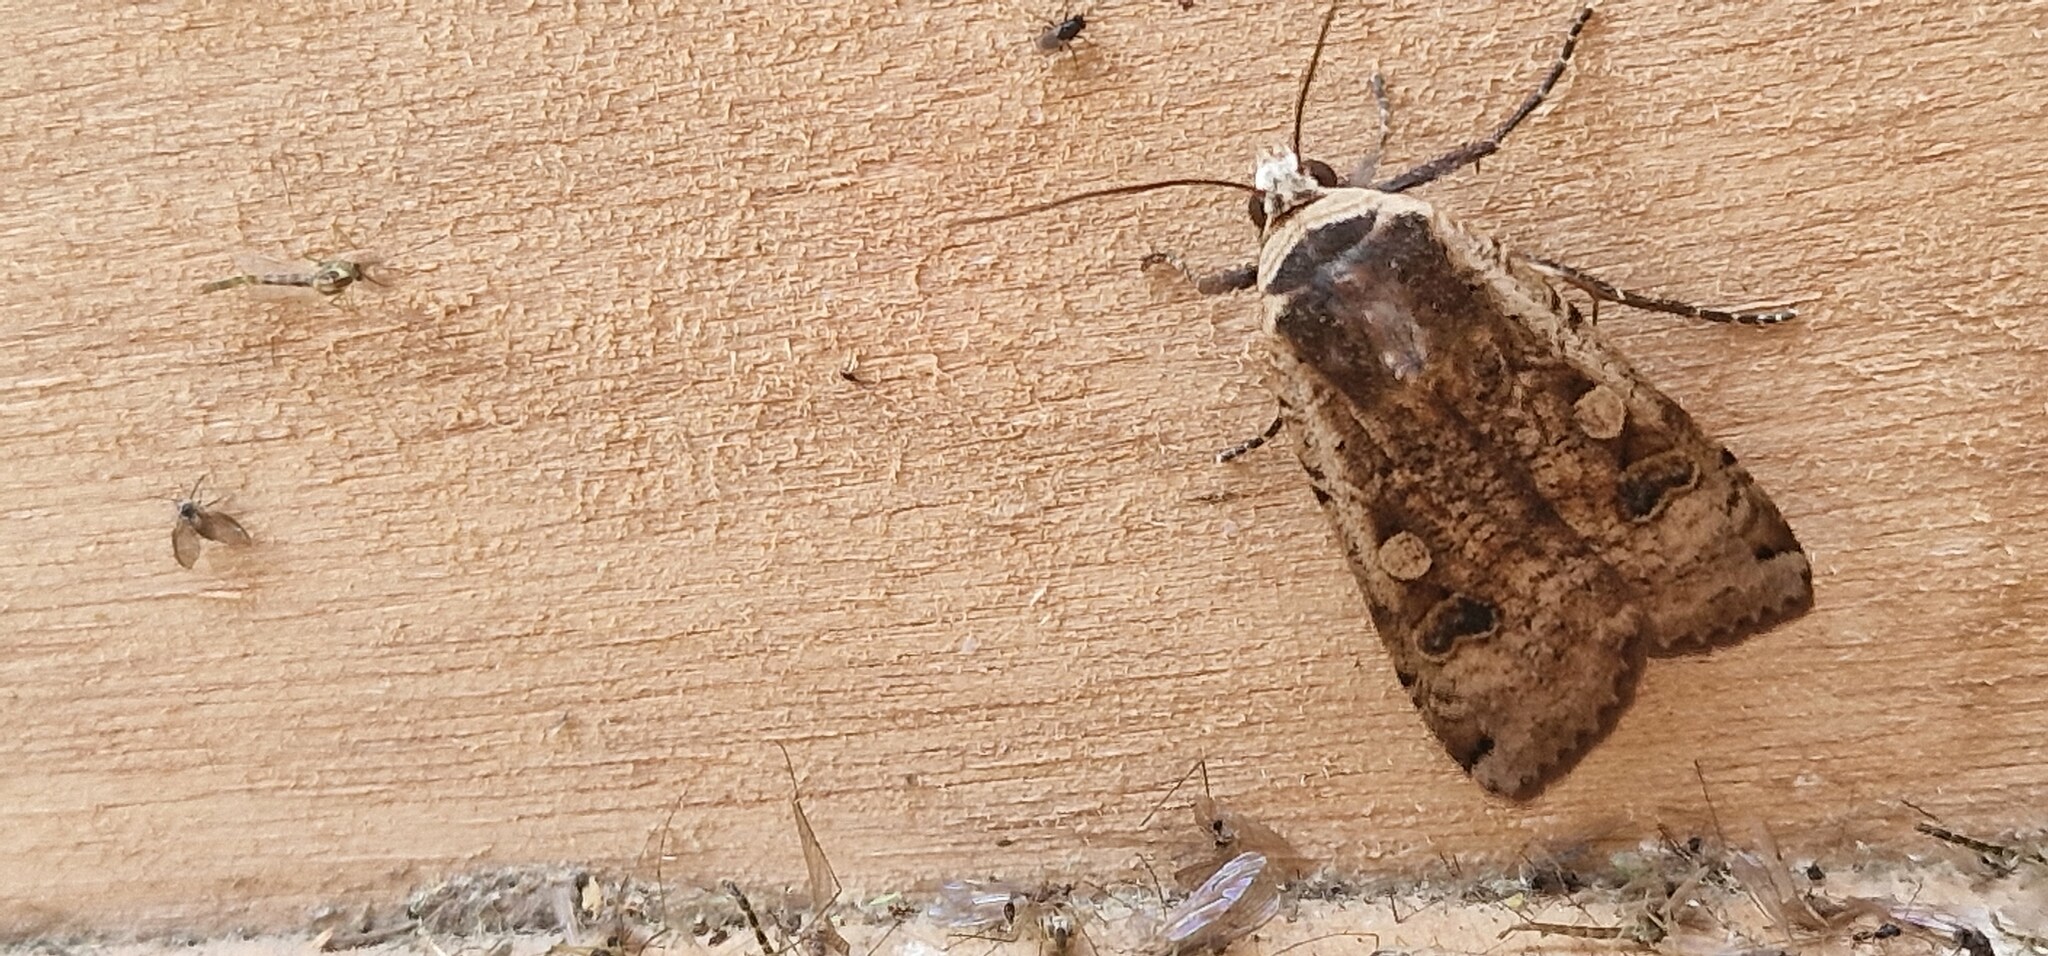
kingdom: Animalia
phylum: Arthropoda
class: Insecta
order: Lepidoptera
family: Noctuidae
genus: Noctua
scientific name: Noctua pronuba
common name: Large yellow underwing
